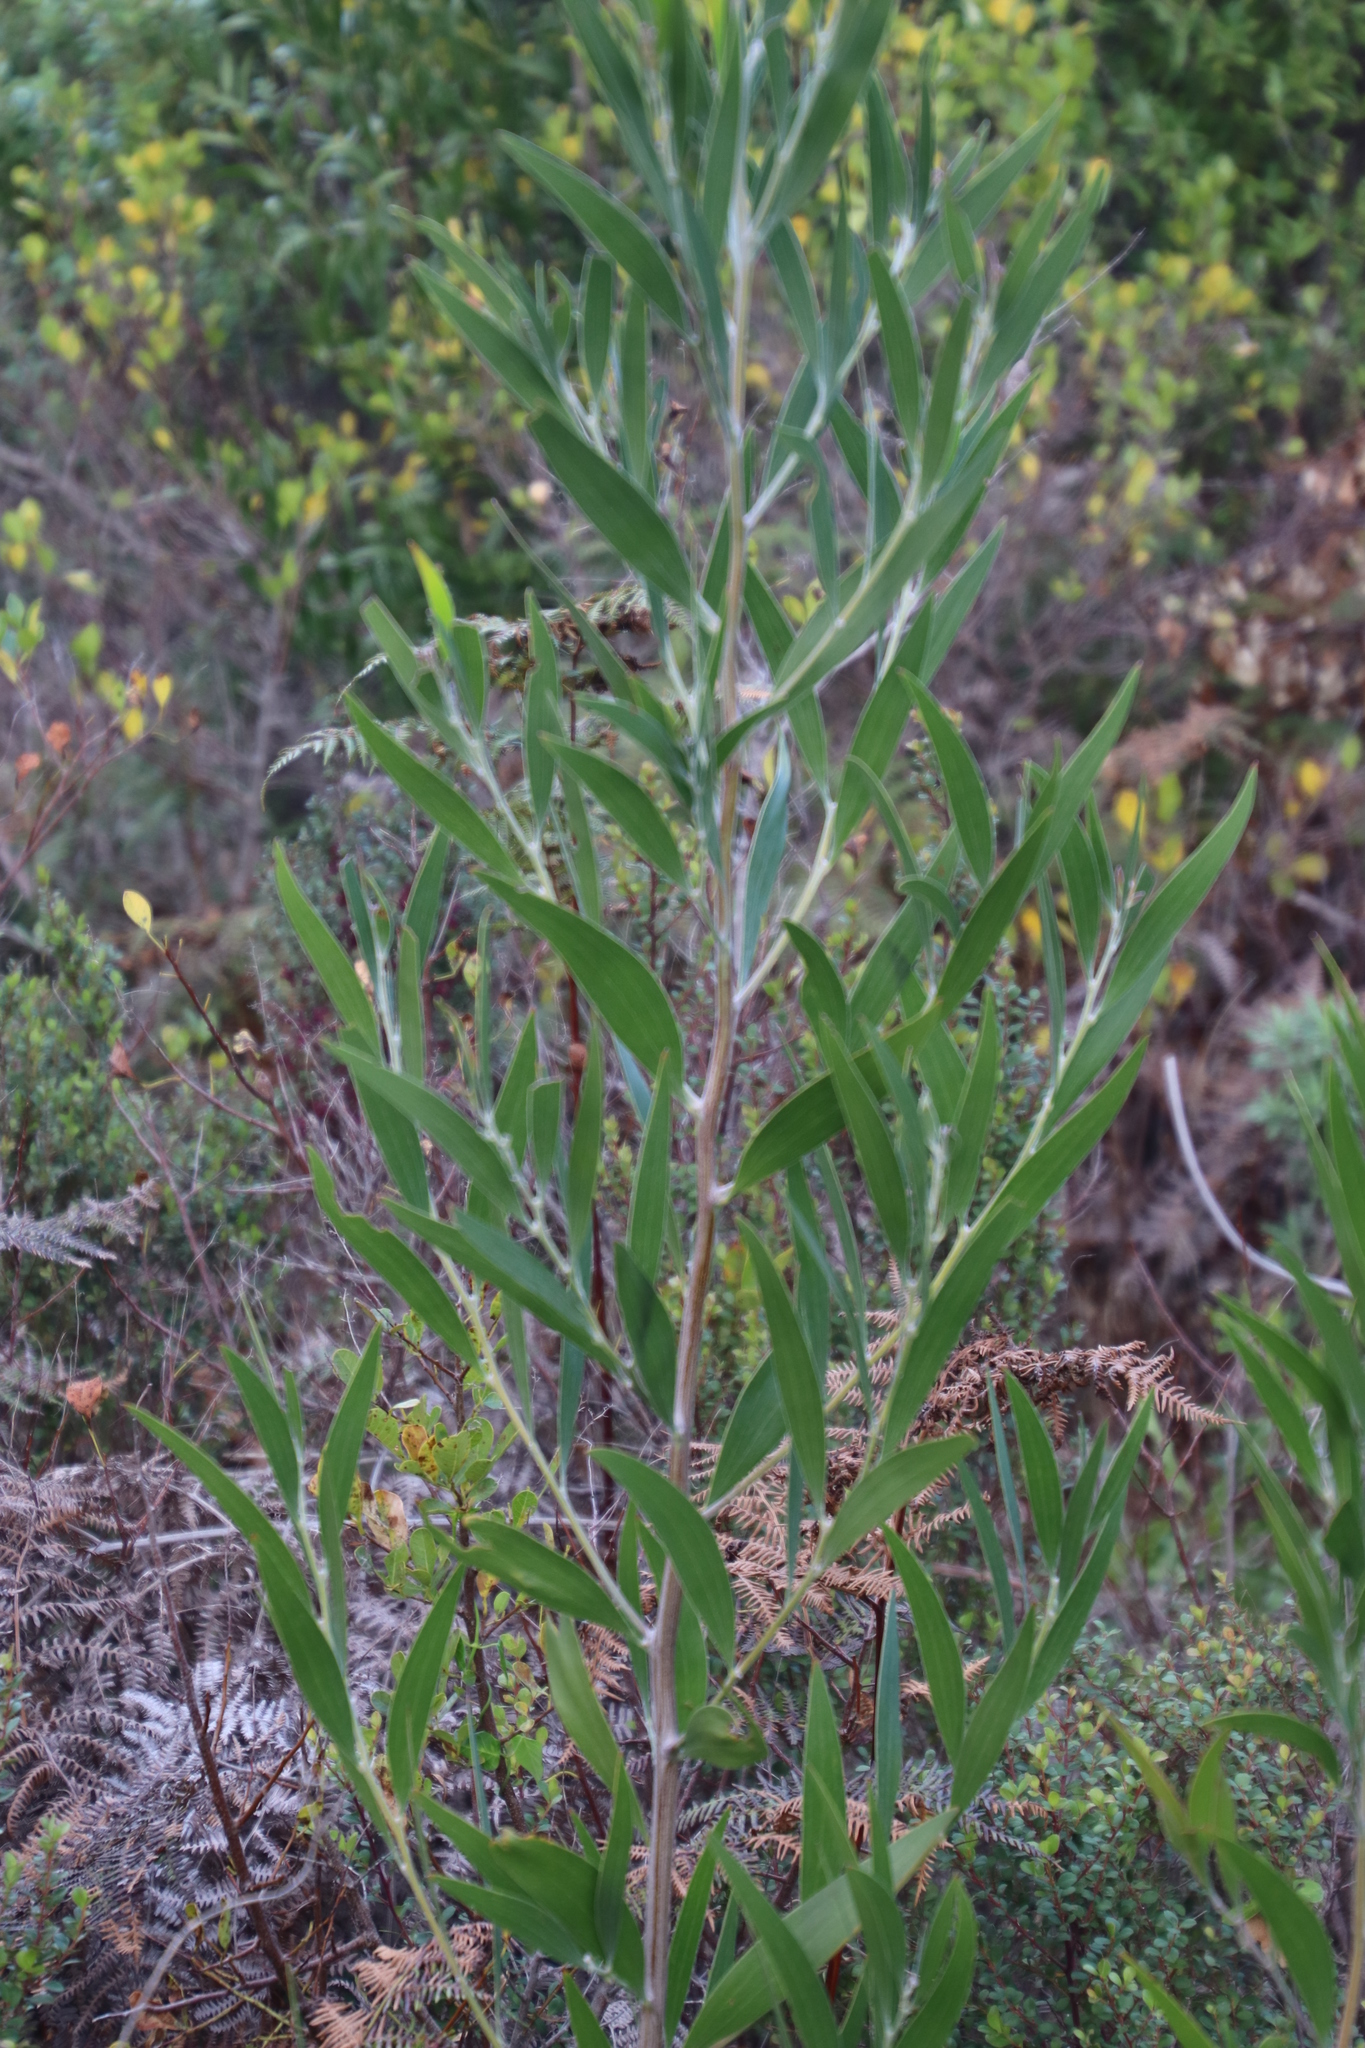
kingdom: Plantae
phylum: Tracheophyta
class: Magnoliopsida
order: Fabales
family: Fabaceae
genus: Acacia
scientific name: Acacia melanoxylon
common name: Blackwood
